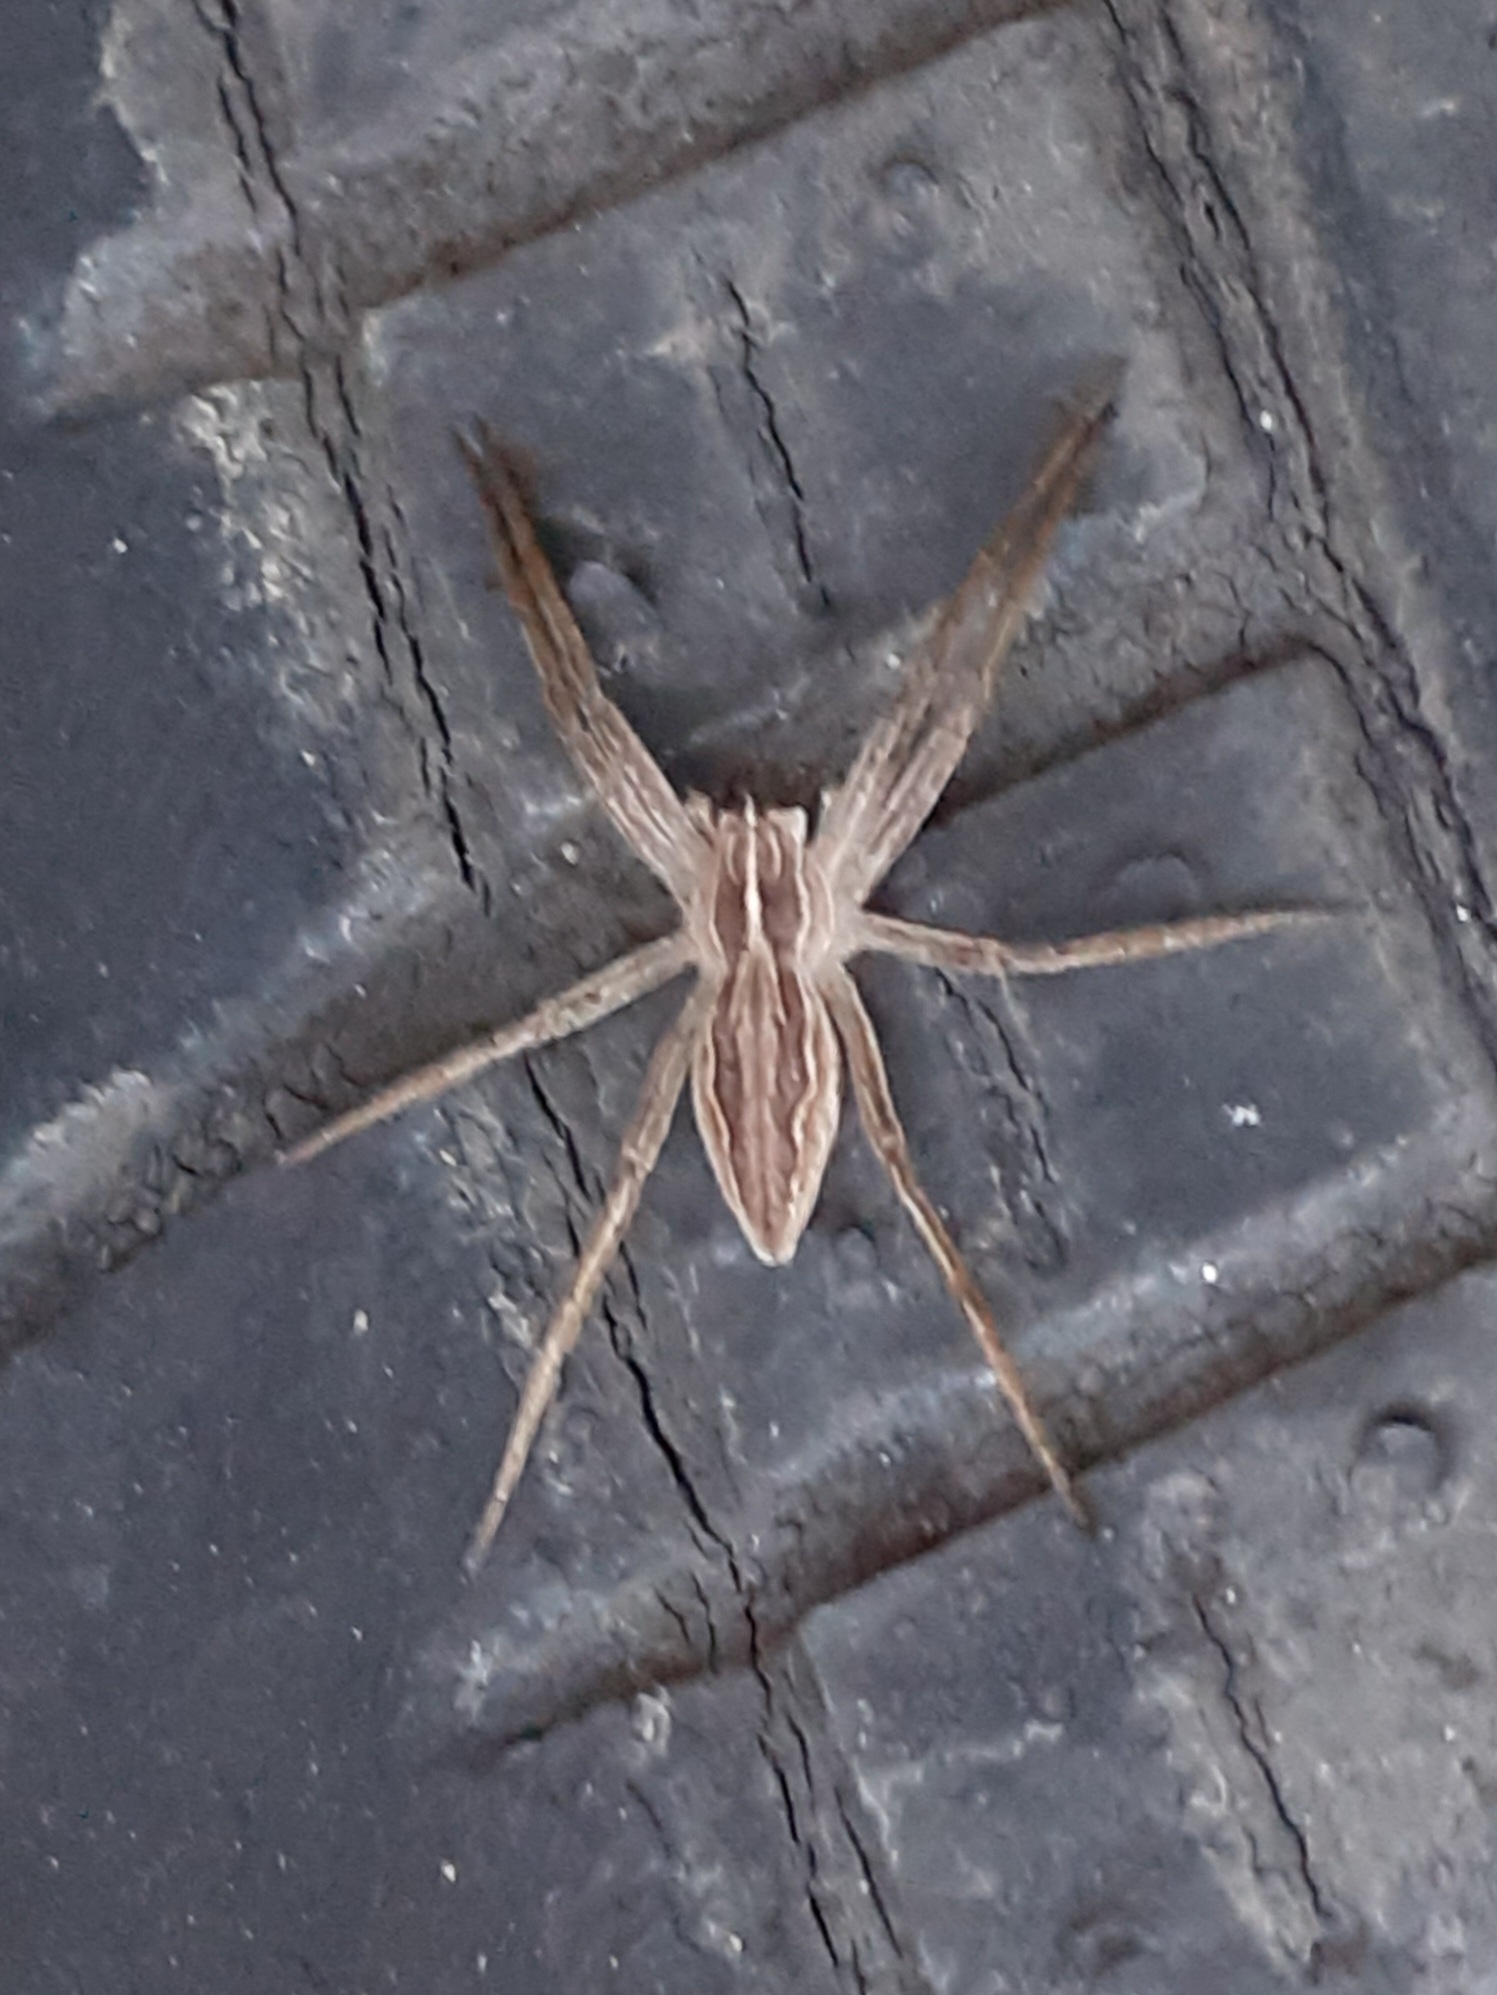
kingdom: Animalia
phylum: Arthropoda
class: Arachnida
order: Araneae
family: Pisauridae
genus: Pisaura
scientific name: Pisaura mirabilis
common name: Tent spider
